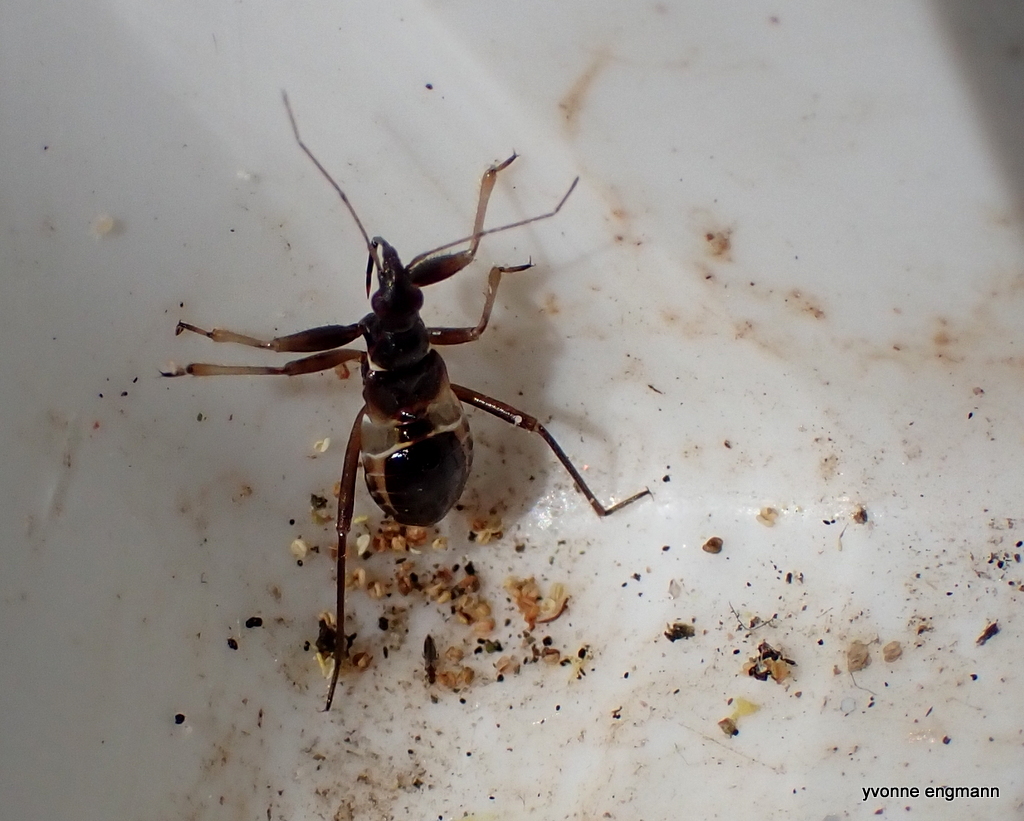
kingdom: Animalia
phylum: Arthropoda
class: Insecta
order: Hemiptera
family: Nabidae
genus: Himacerus
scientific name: Himacerus mirmicoides
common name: Ant damsel bug
